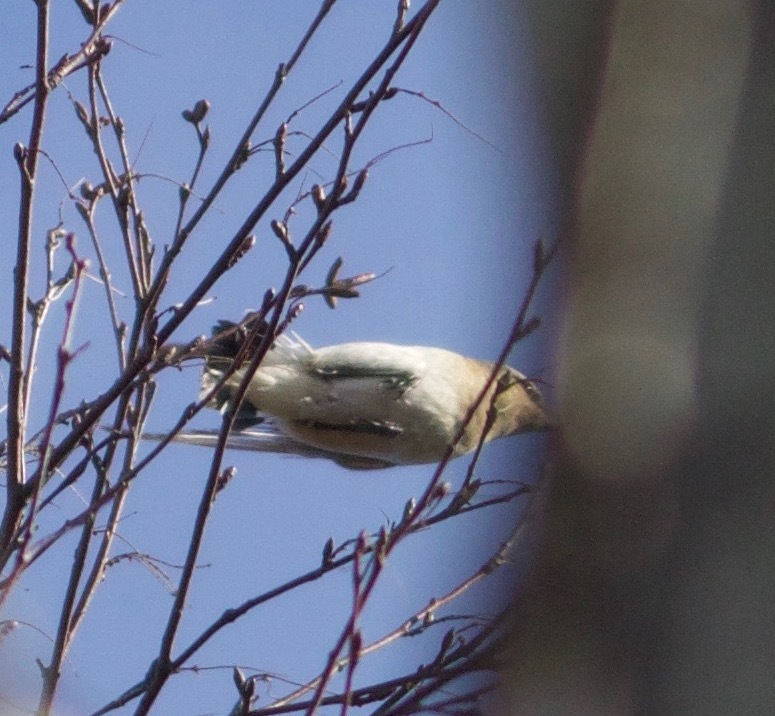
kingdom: Animalia
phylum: Chordata
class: Aves
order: Passeriformes
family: Muscicapidae
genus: Oenanthe
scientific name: Oenanthe oenanthe
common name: Northern wheatear
